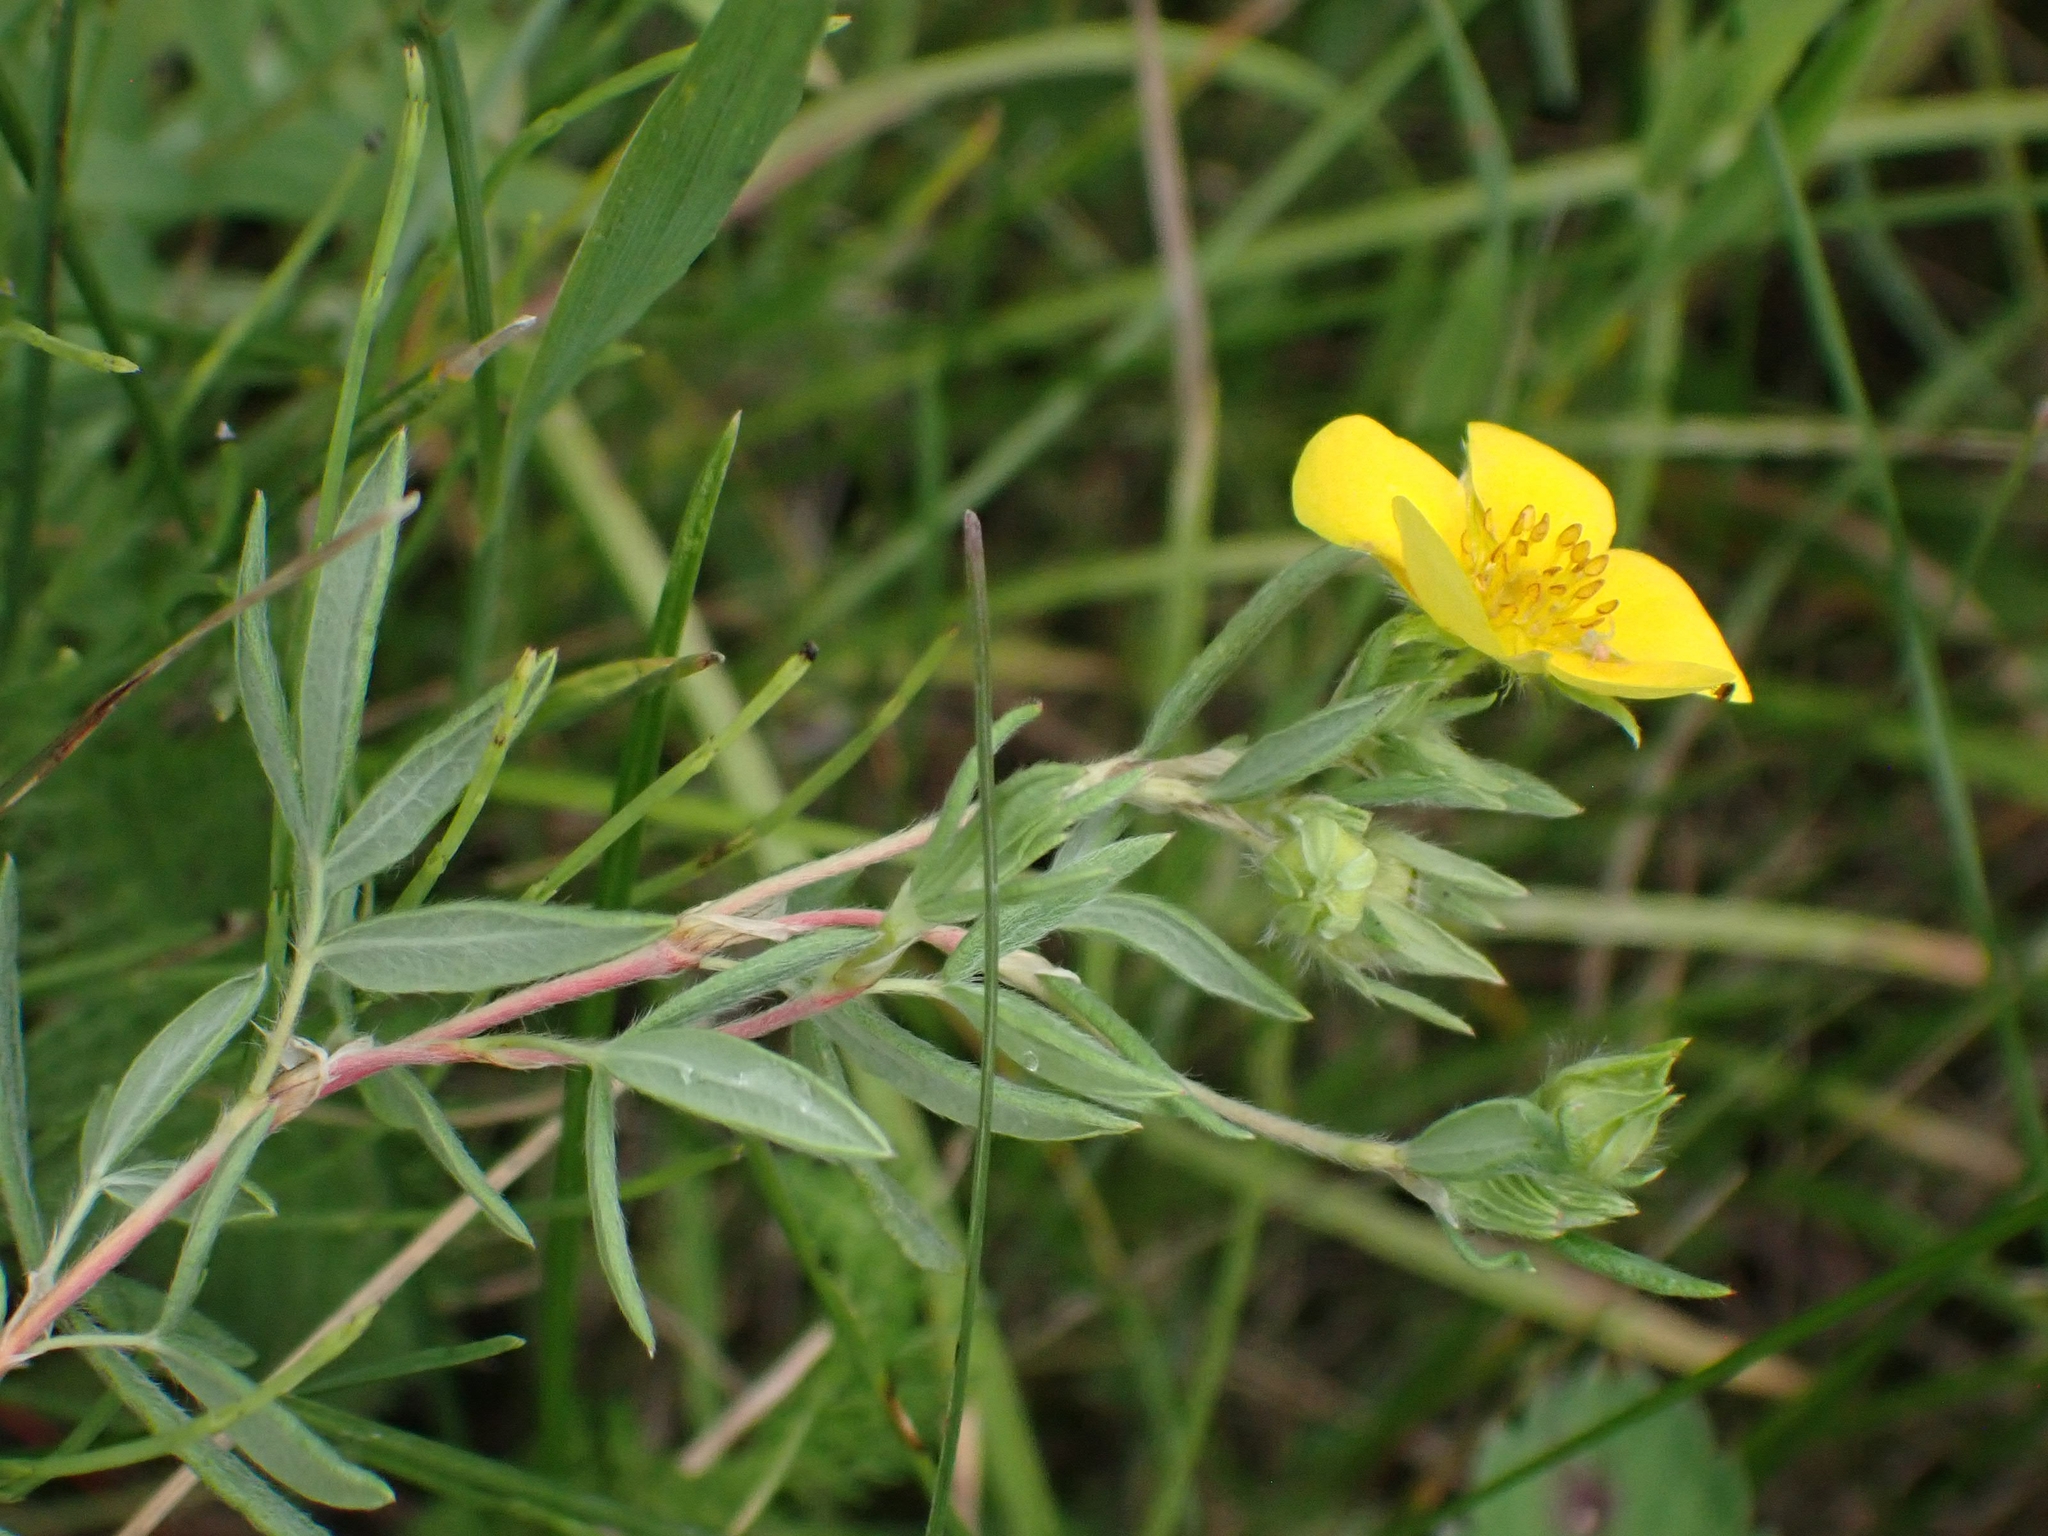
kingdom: Plantae
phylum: Tracheophyta
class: Magnoliopsida
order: Rosales
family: Rosaceae
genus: Dasiphora
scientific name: Dasiphora fruticosa
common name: Shrubby cinquefoil
